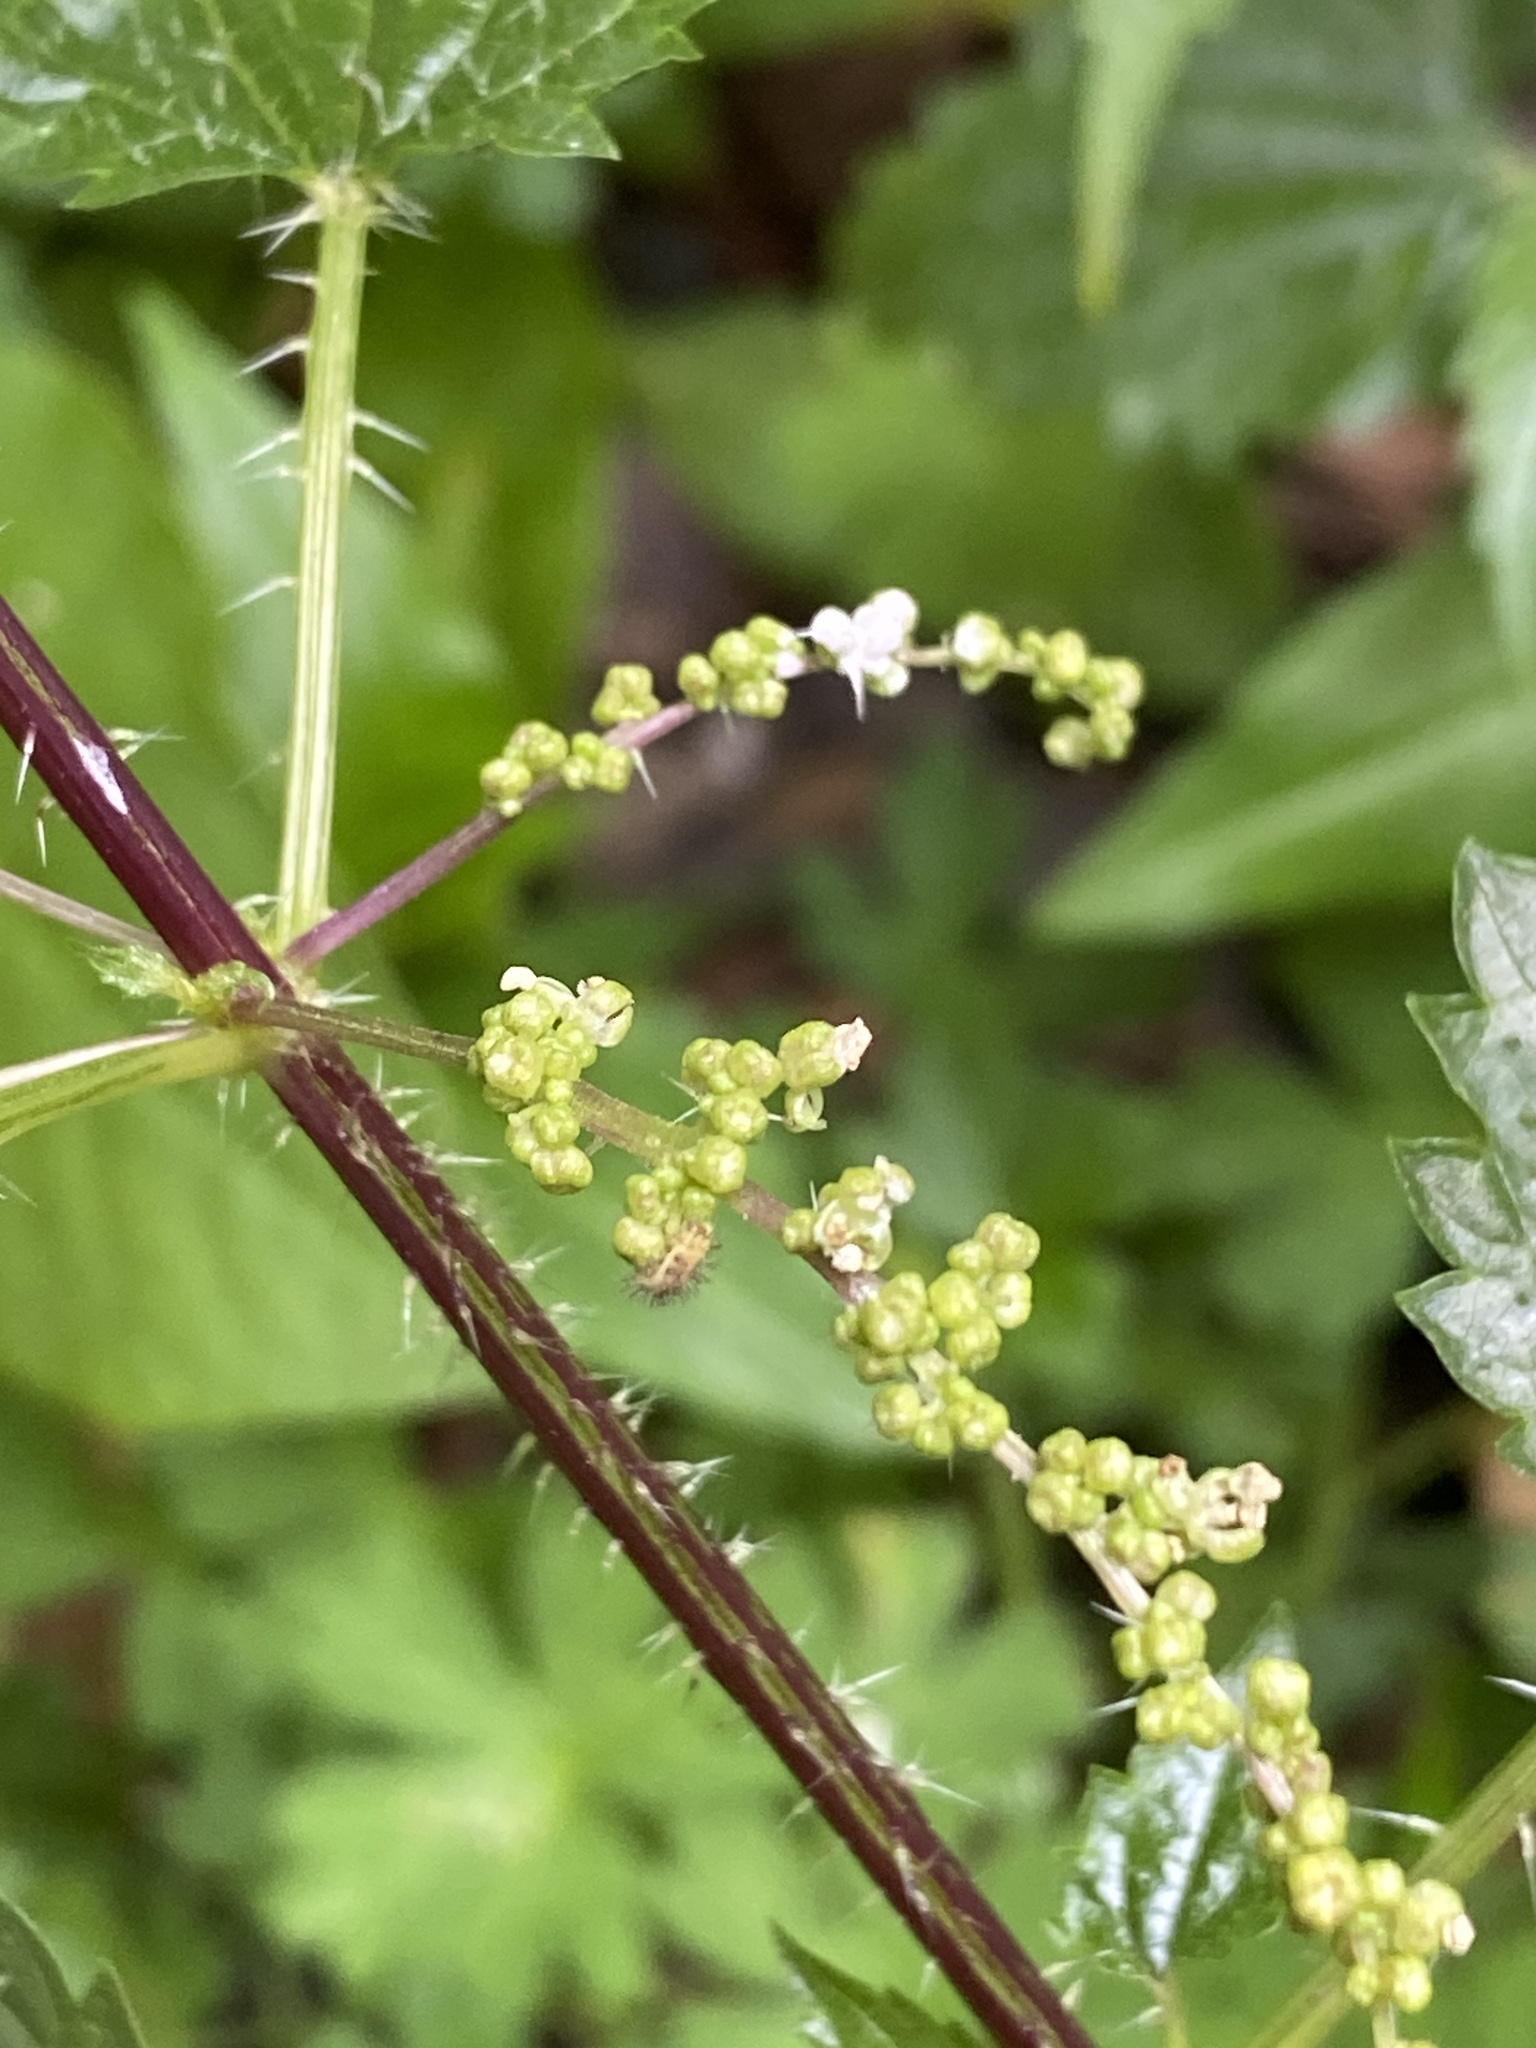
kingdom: Plantae
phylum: Tracheophyta
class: Magnoliopsida
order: Rosales
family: Urticaceae
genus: Urtica
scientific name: Urtica incisa
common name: Scrub nettle
